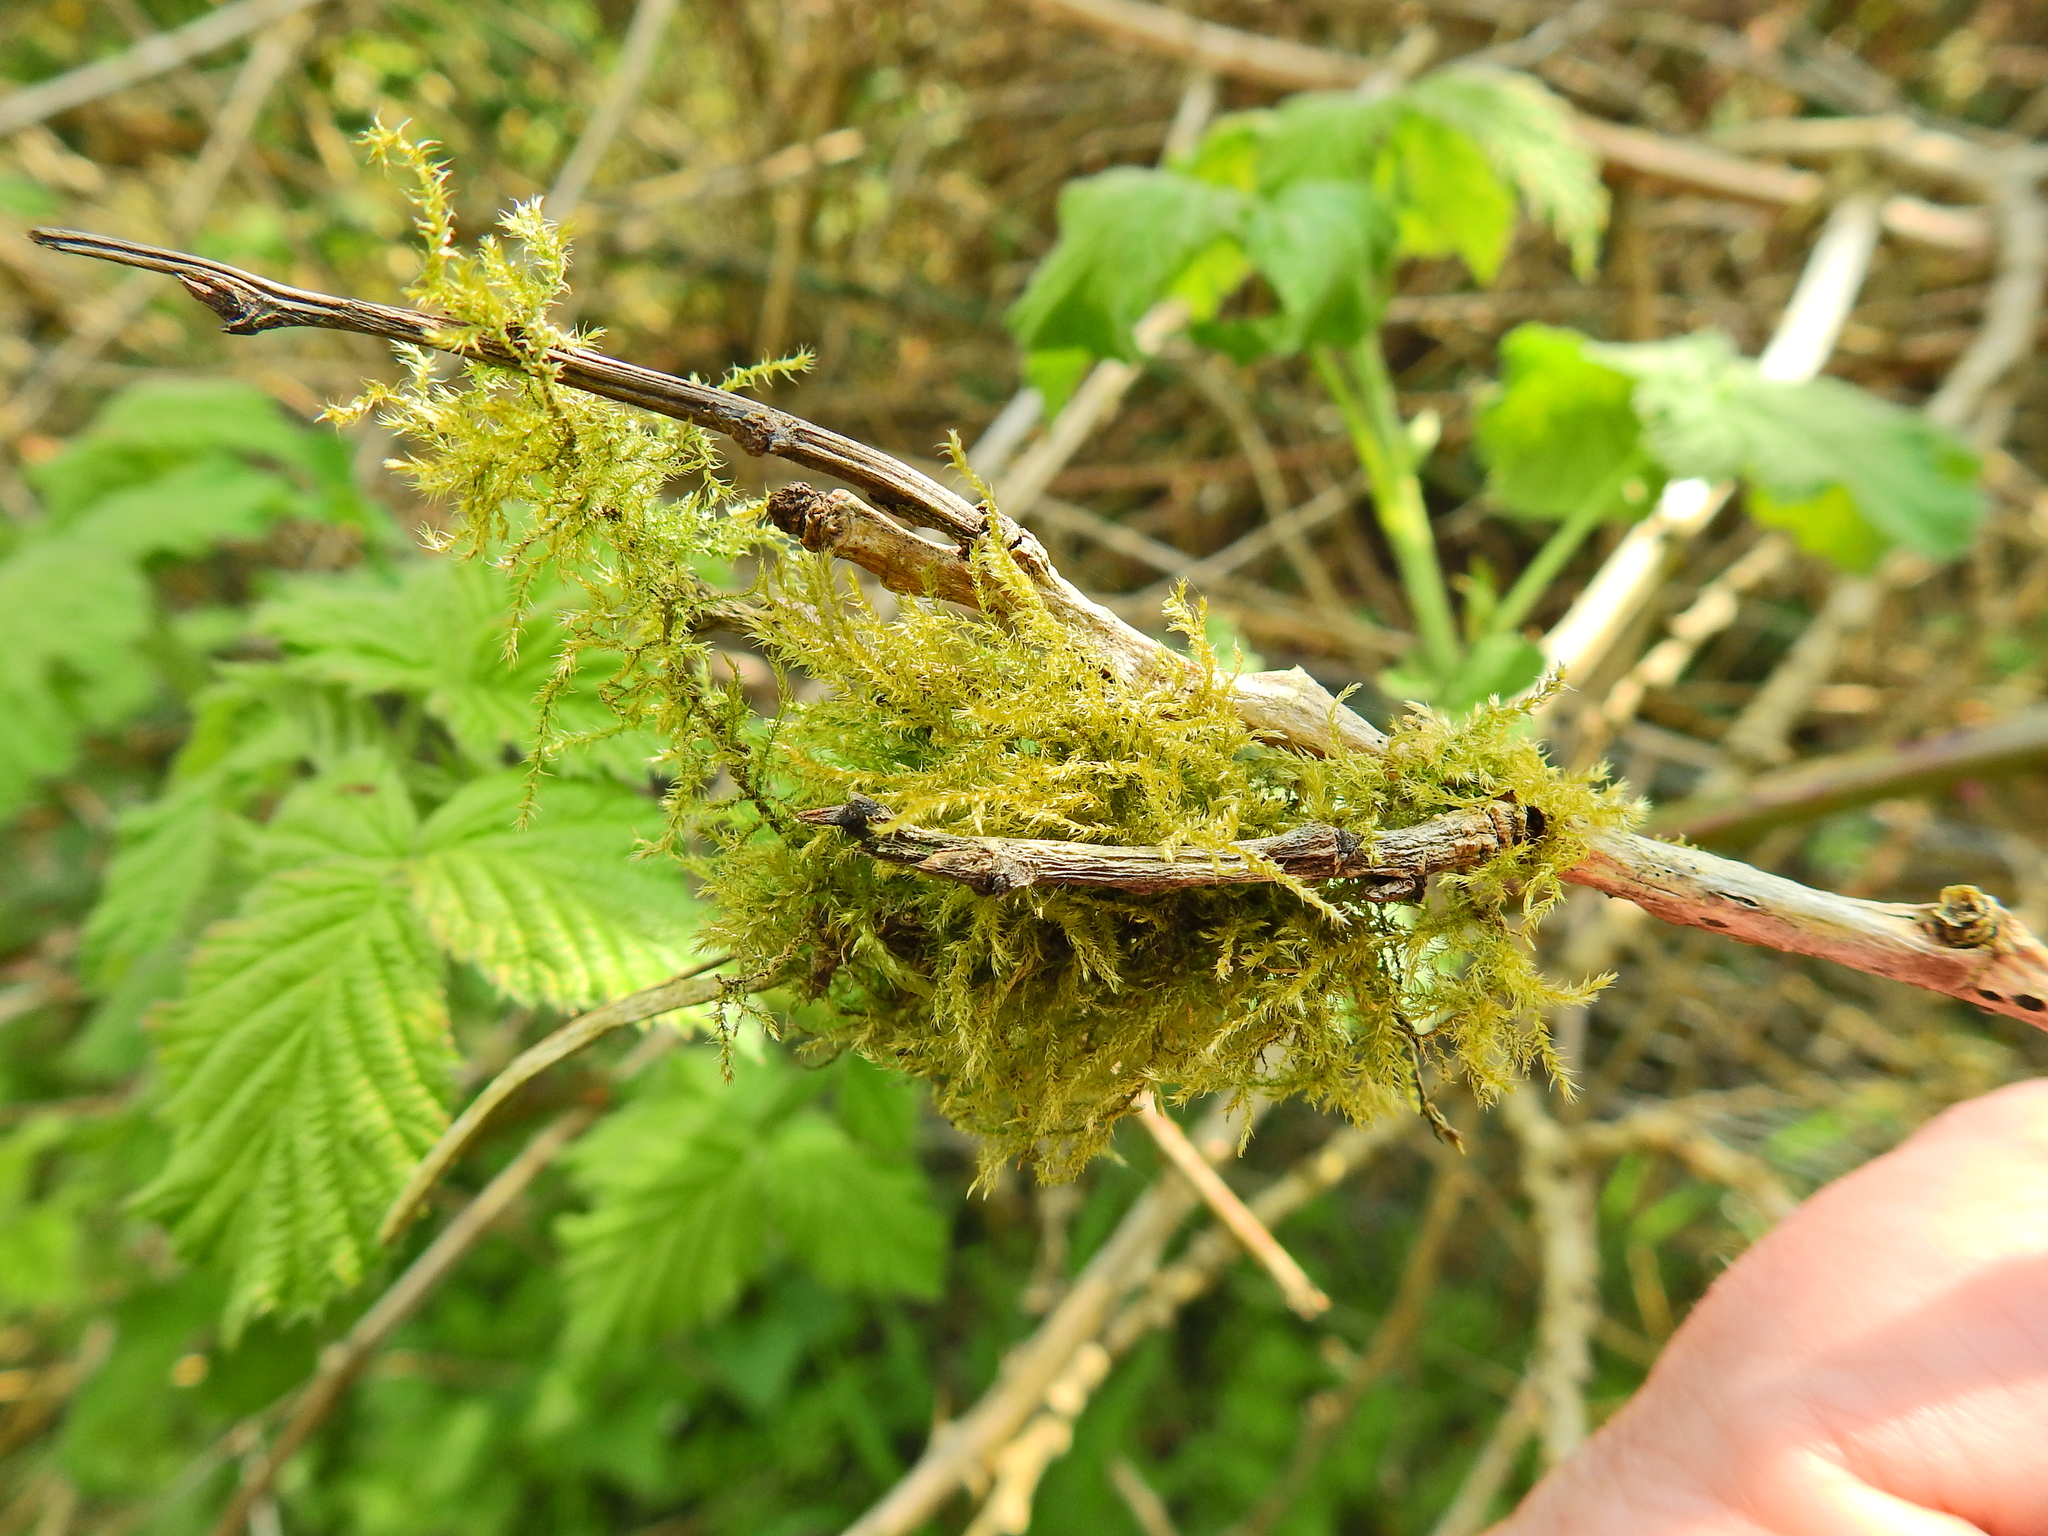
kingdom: Plantae
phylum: Bryophyta
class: Bryopsida
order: Hypnales
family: Amblystegiaceae
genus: Amblystegium
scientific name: Amblystegium serpens
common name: Jurkatzka's feather moss
